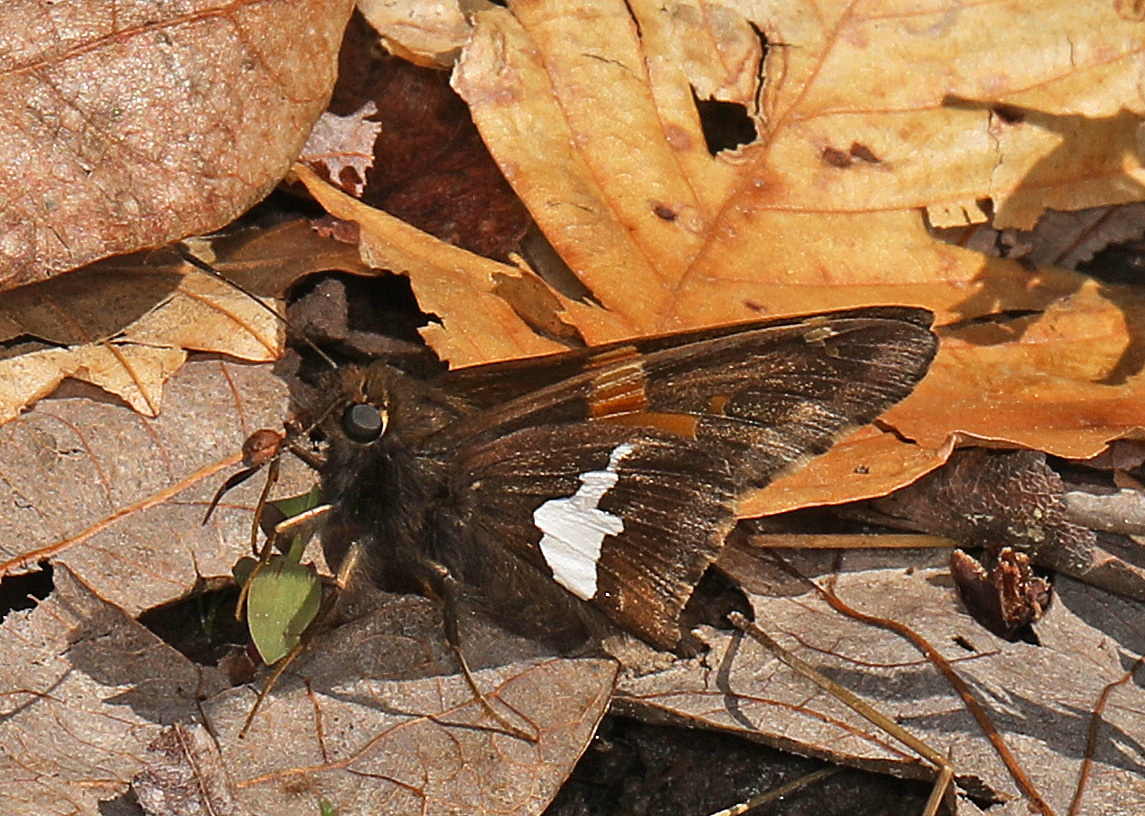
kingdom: Animalia
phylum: Arthropoda
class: Insecta
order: Lepidoptera
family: Hesperiidae
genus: Epargyreus
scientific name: Epargyreus clarus
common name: Silver-spotted skipper
